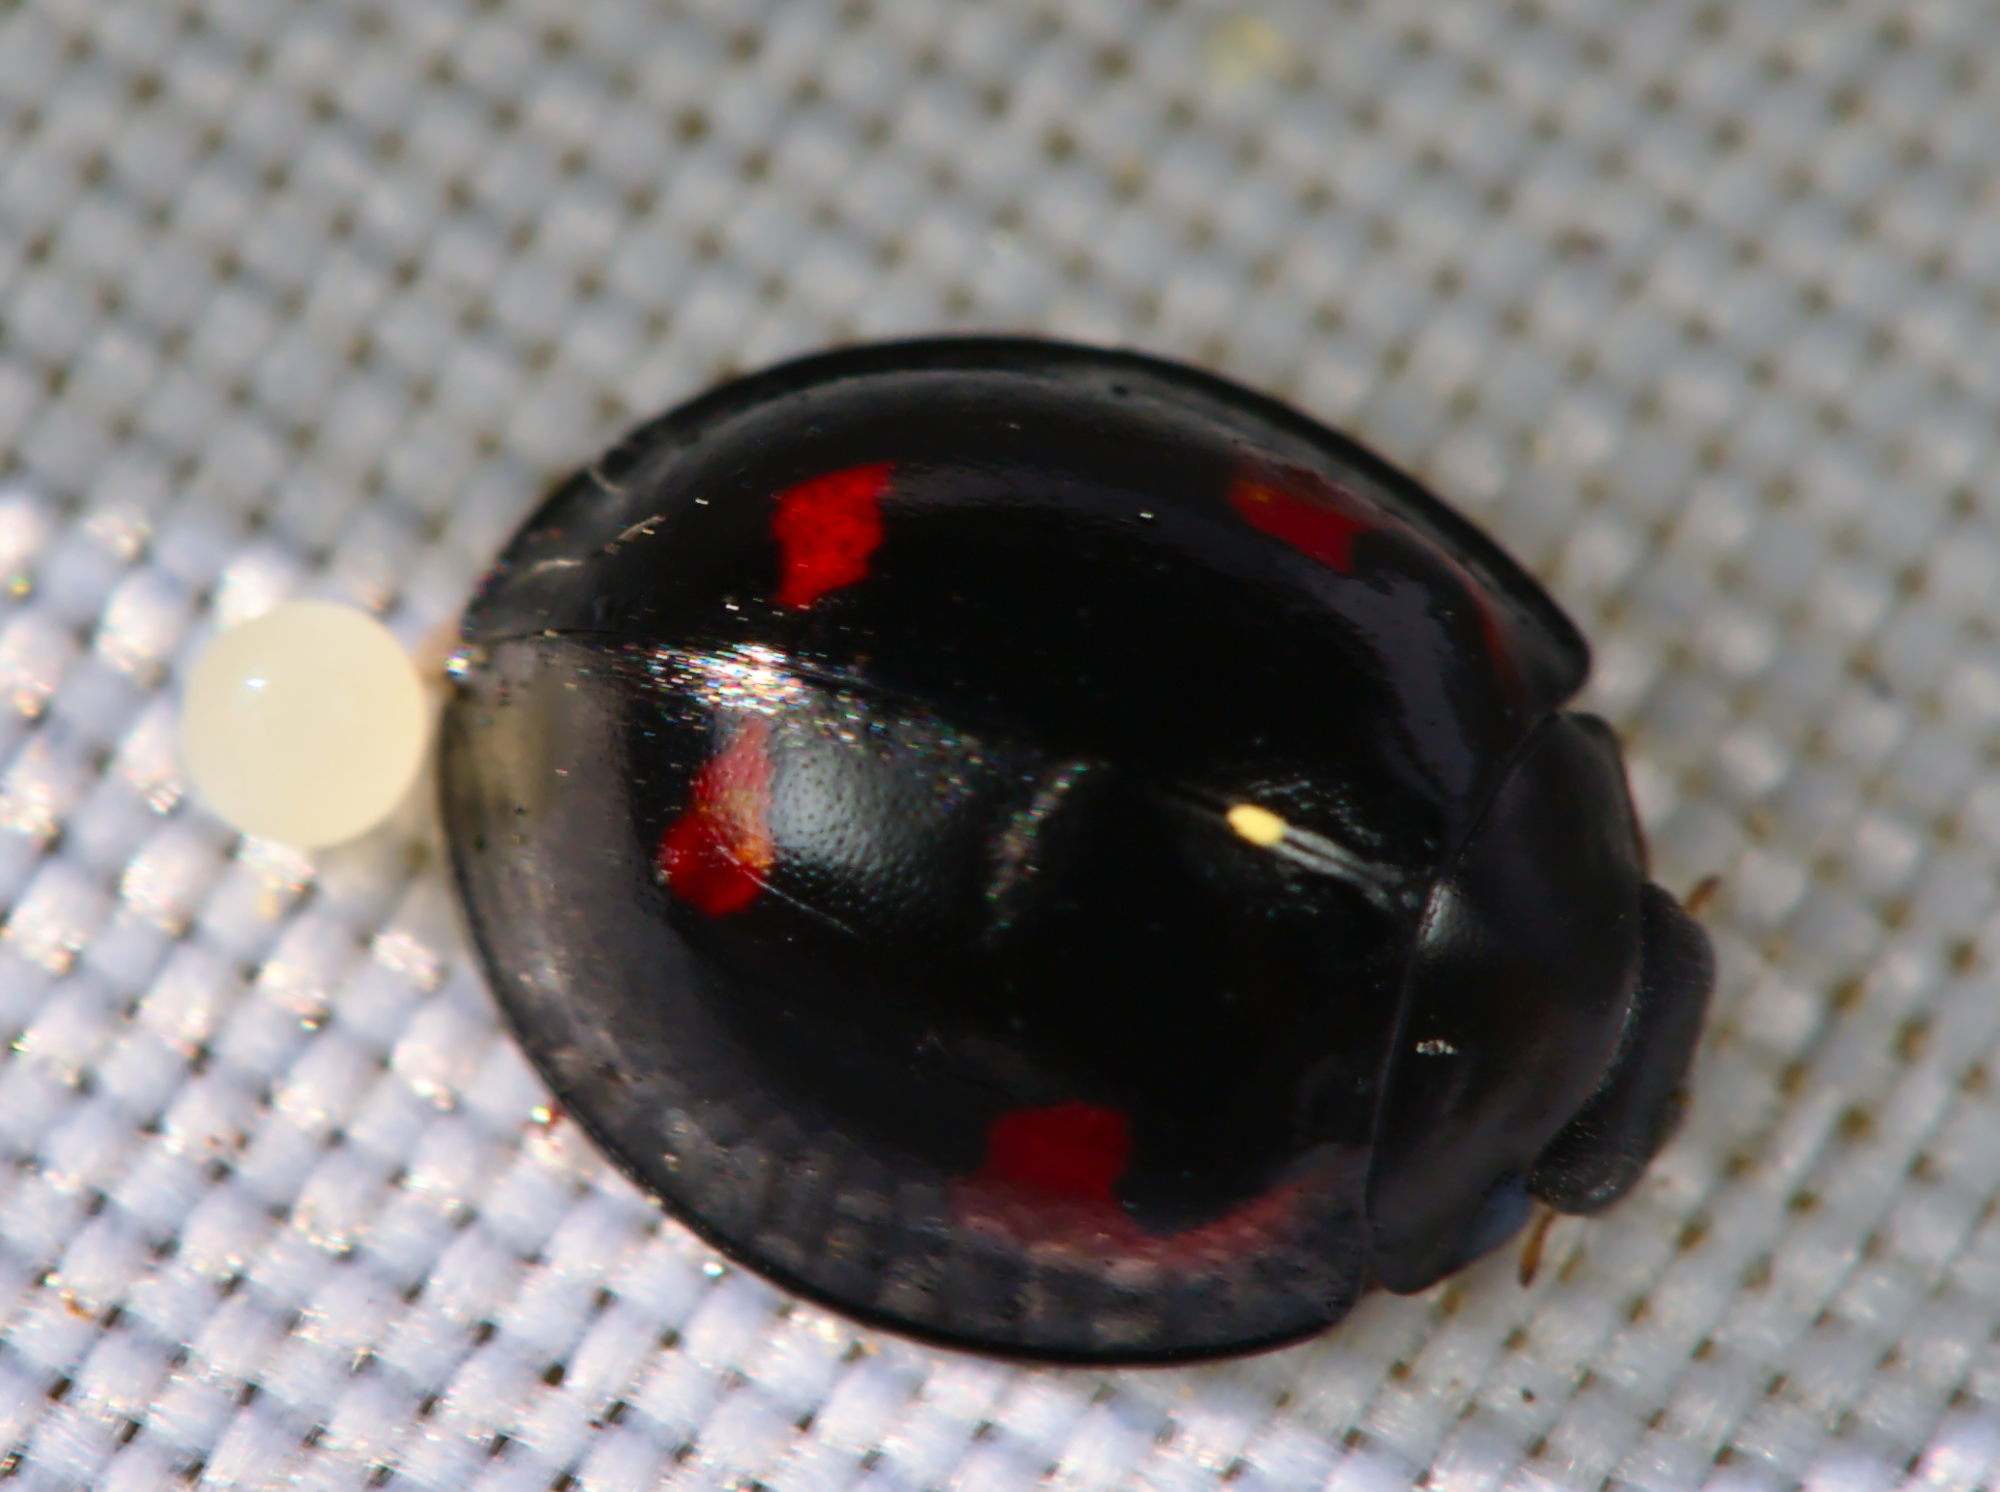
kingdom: Animalia
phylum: Arthropoda
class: Insecta
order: Coleoptera
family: Coccinellidae
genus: Brumus
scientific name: Brumus quadripustulatus
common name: Ladybird beetle
